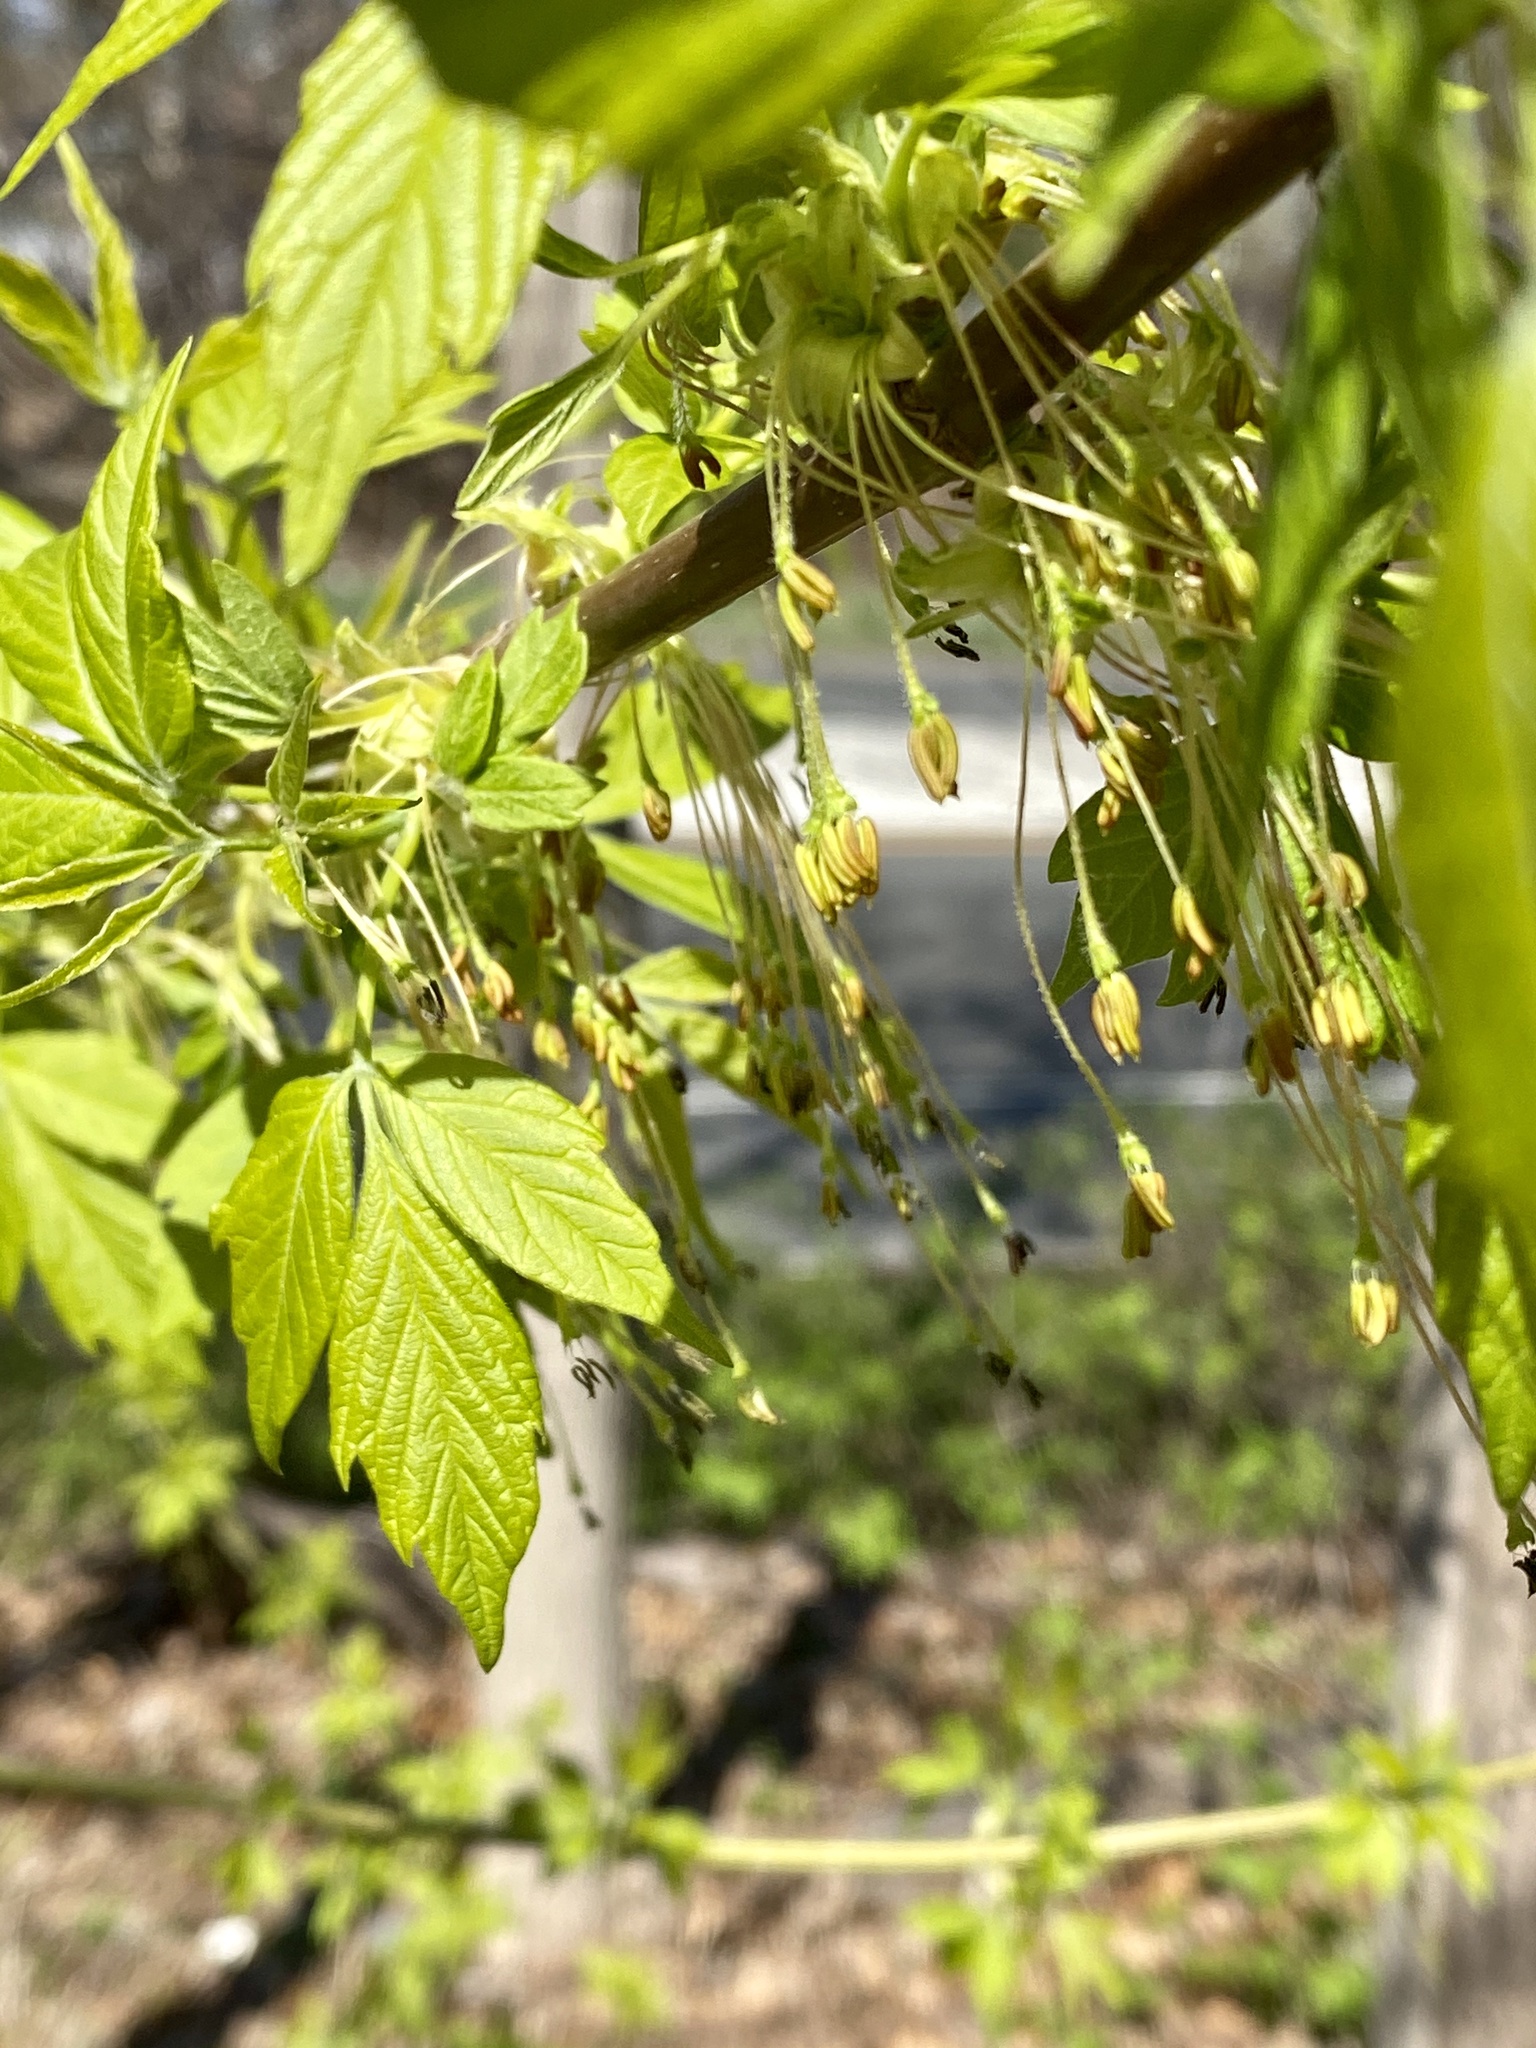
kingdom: Plantae
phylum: Tracheophyta
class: Magnoliopsida
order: Sapindales
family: Sapindaceae
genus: Acer
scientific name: Acer negundo
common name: Ashleaf maple
